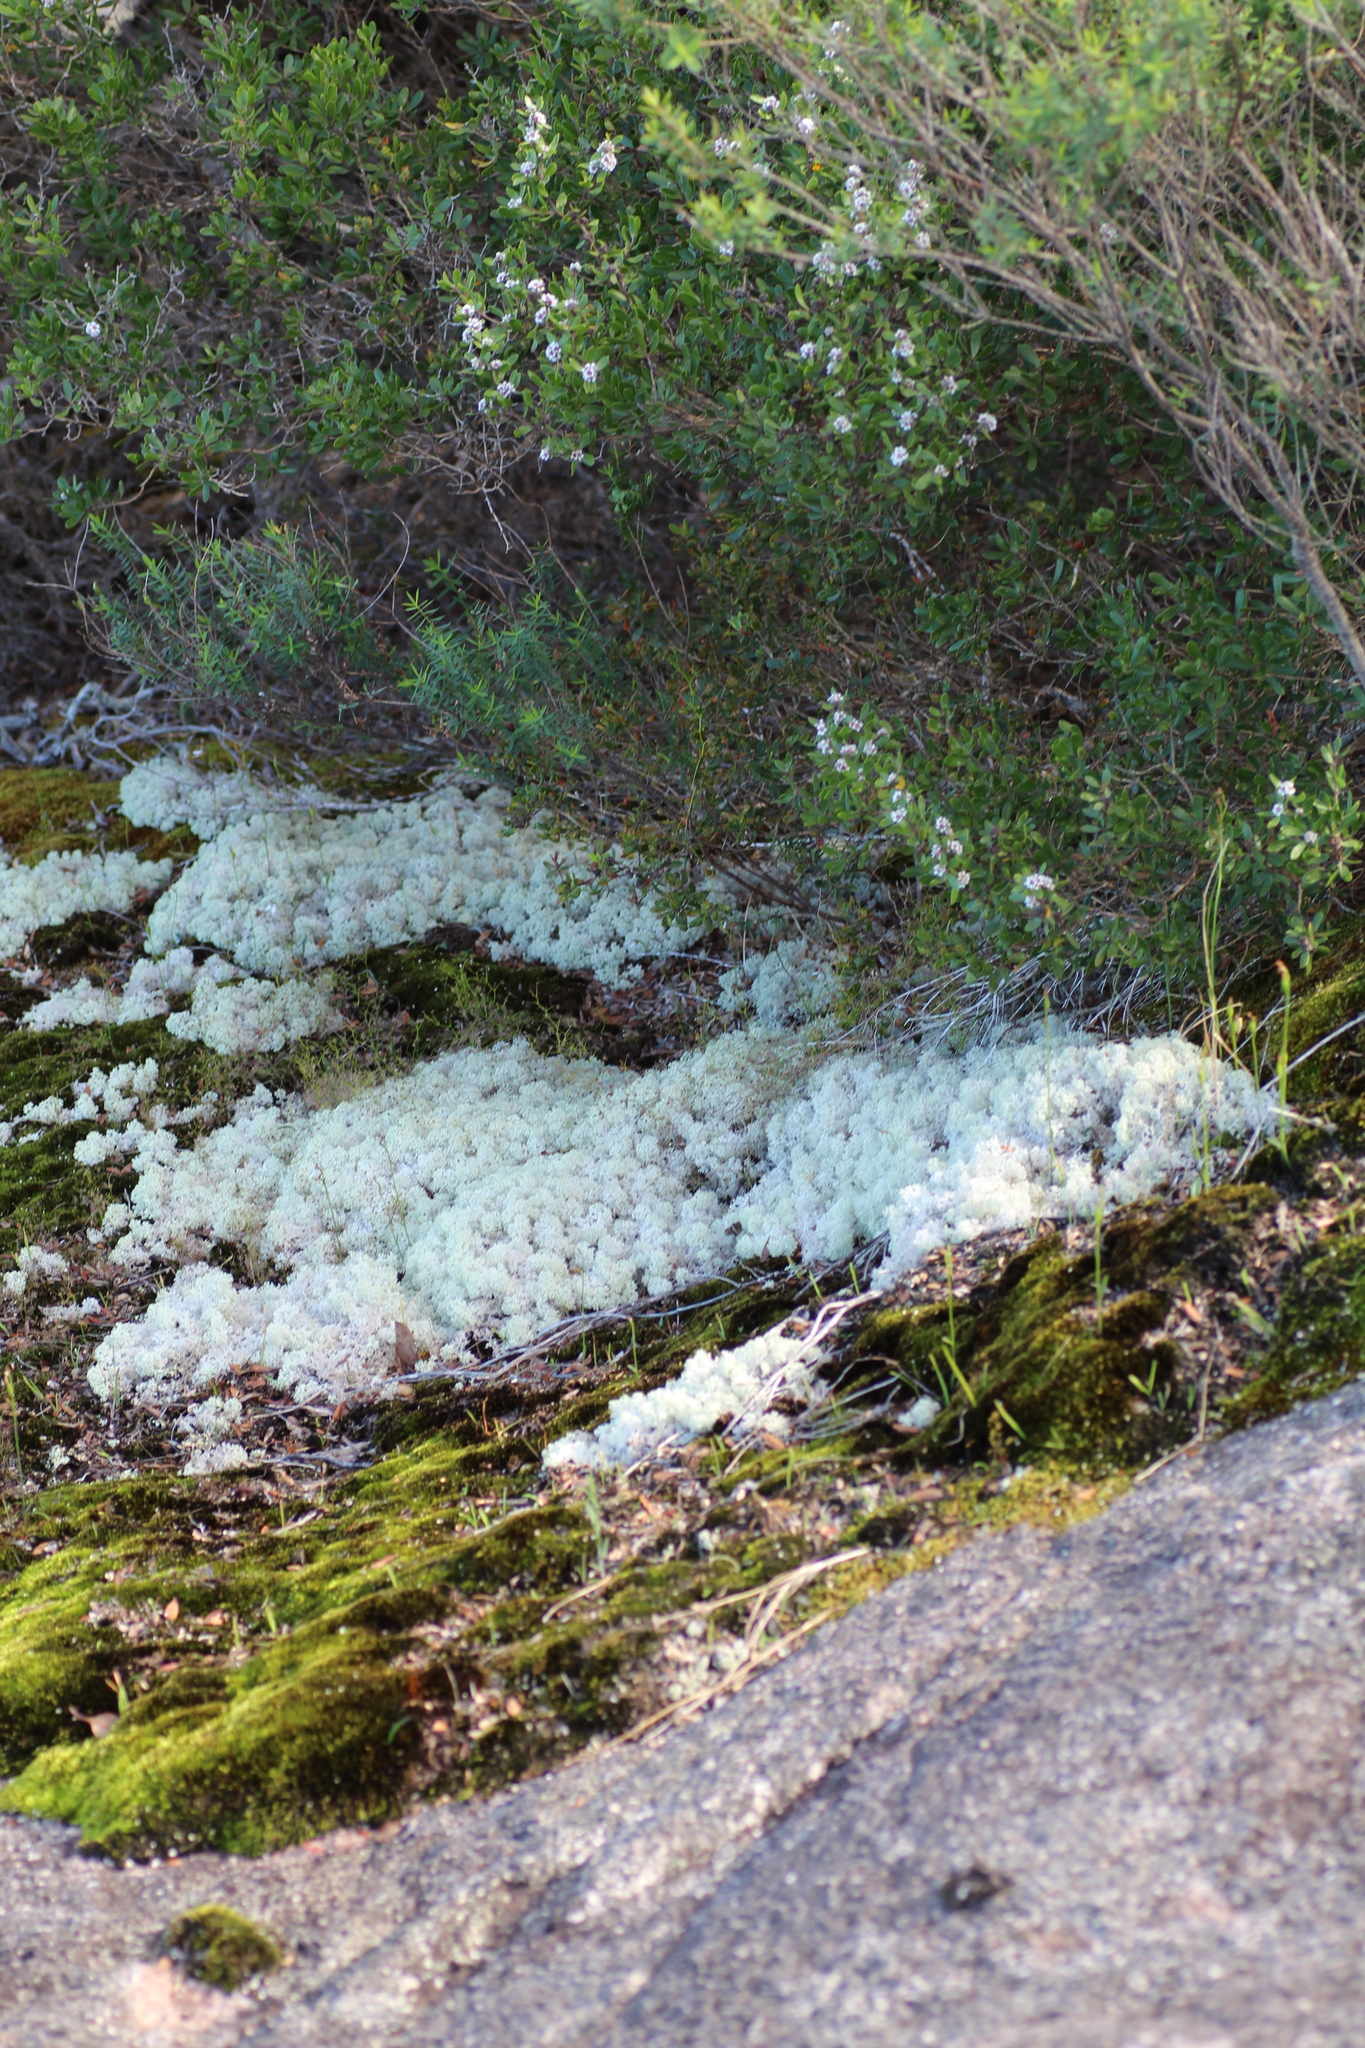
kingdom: Fungi
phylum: Ascomycota
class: Lecanoromycetes
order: Lecanorales
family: Cladoniaceae
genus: Pulchrocladia
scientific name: Pulchrocladia ferdinandii
